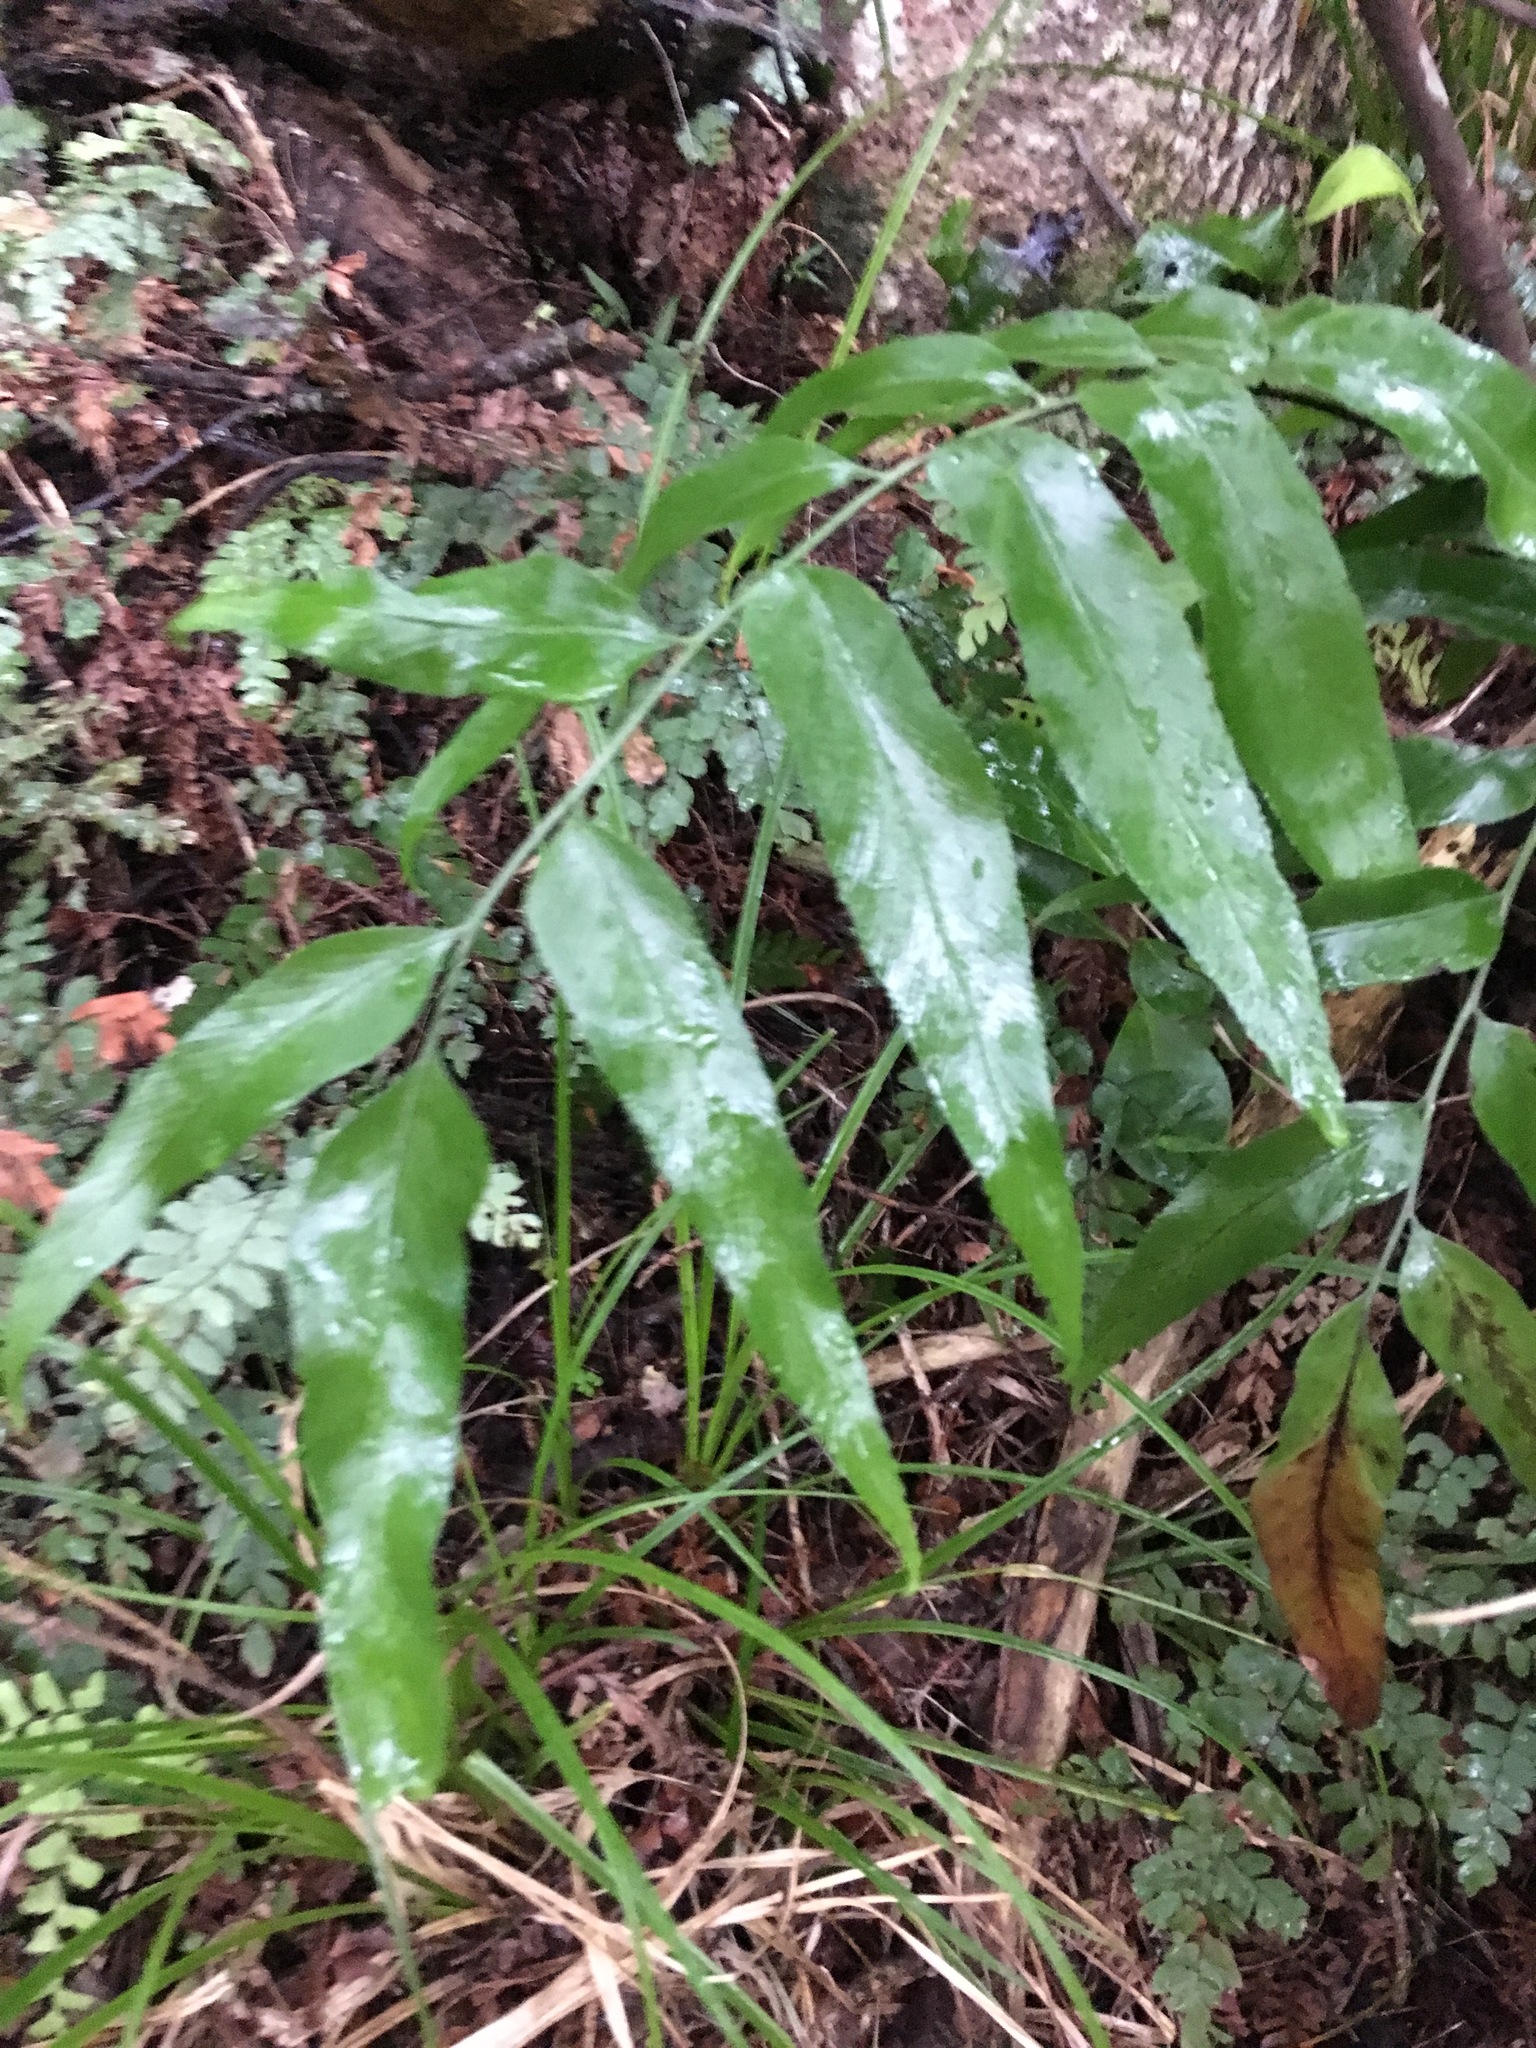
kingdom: Plantae
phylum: Tracheophyta
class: Polypodiopsida
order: Polypodiales
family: Aspleniaceae
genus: Asplenium
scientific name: Asplenium oblongifolium
